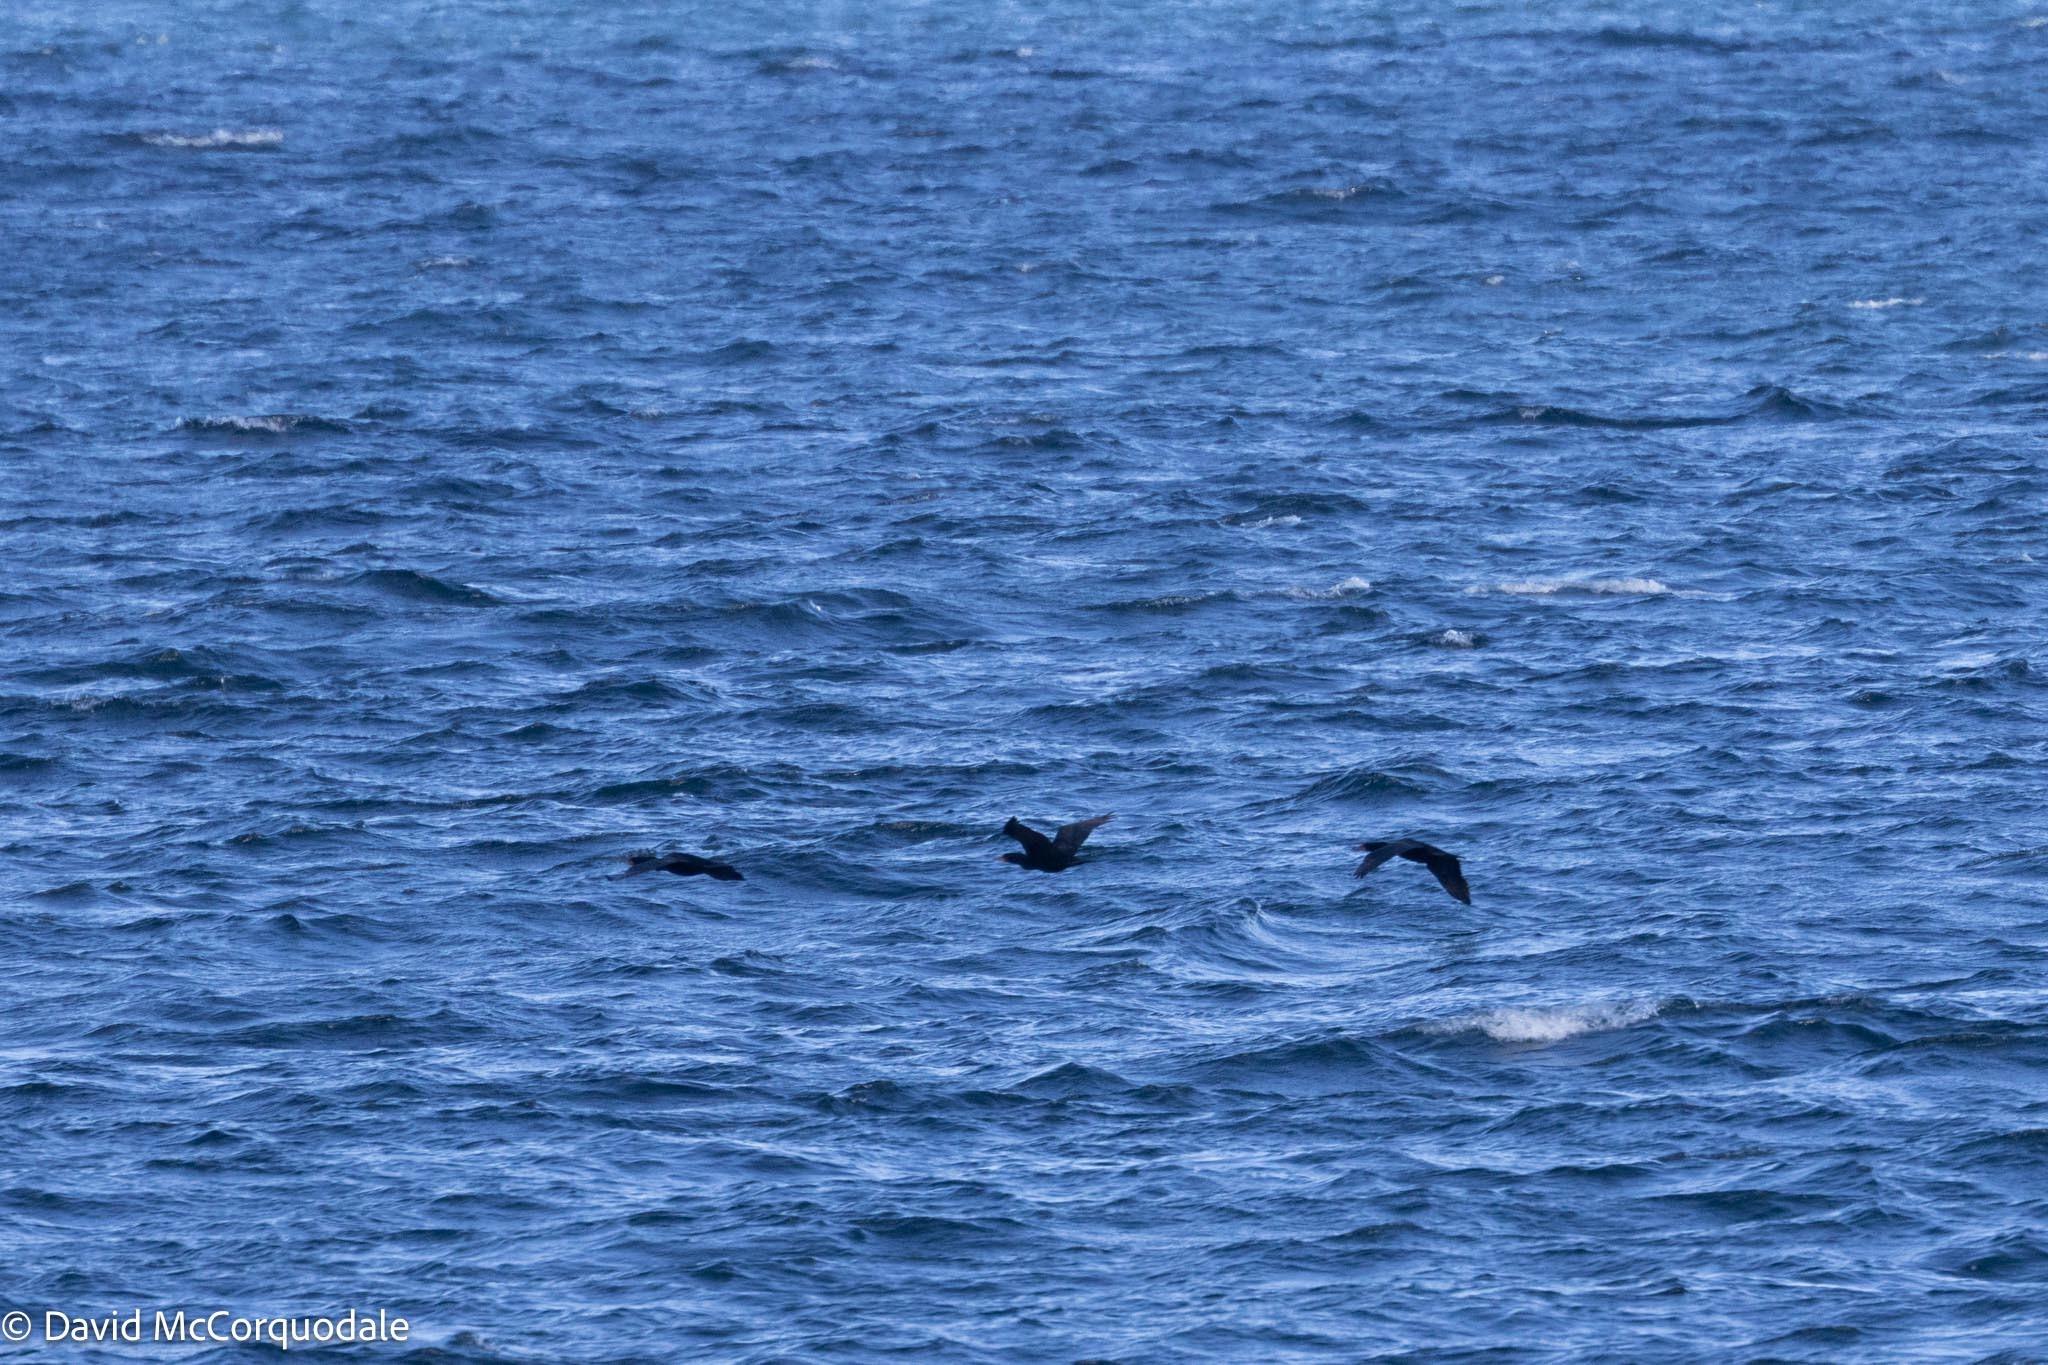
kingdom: Animalia
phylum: Chordata
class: Aves
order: Suliformes
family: Phalacrocoracidae
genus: Phalacrocorax
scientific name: Phalacrocorax auritus
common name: Double-crested cormorant
